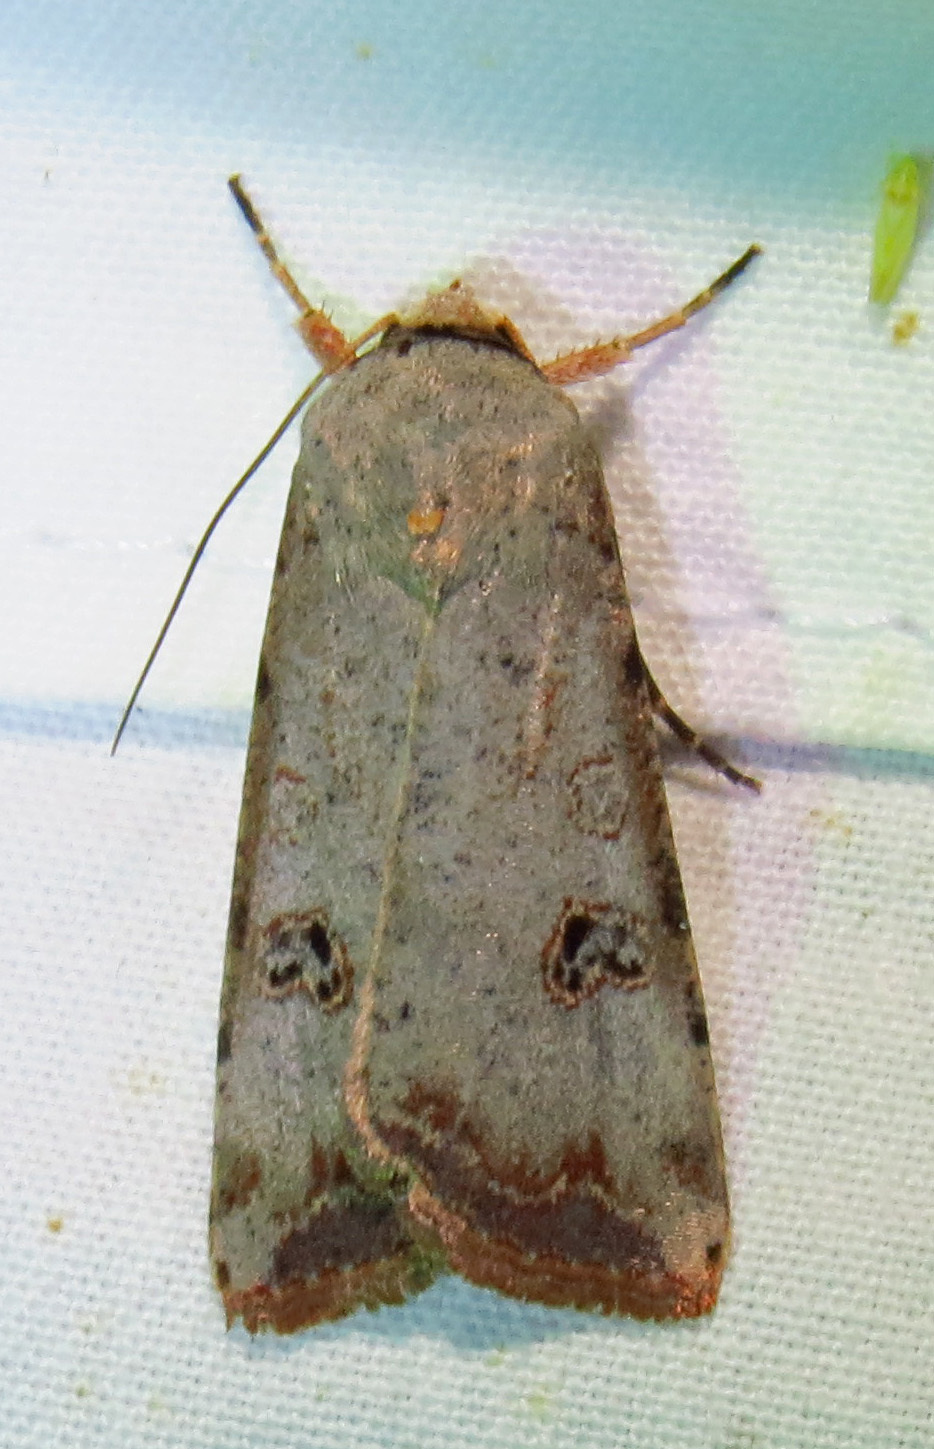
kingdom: Animalia
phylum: Arthropoda
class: Insecta
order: Lepidoptera
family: Noctuidae
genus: Anicla
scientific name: Anicla infecta
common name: Green cutworm
